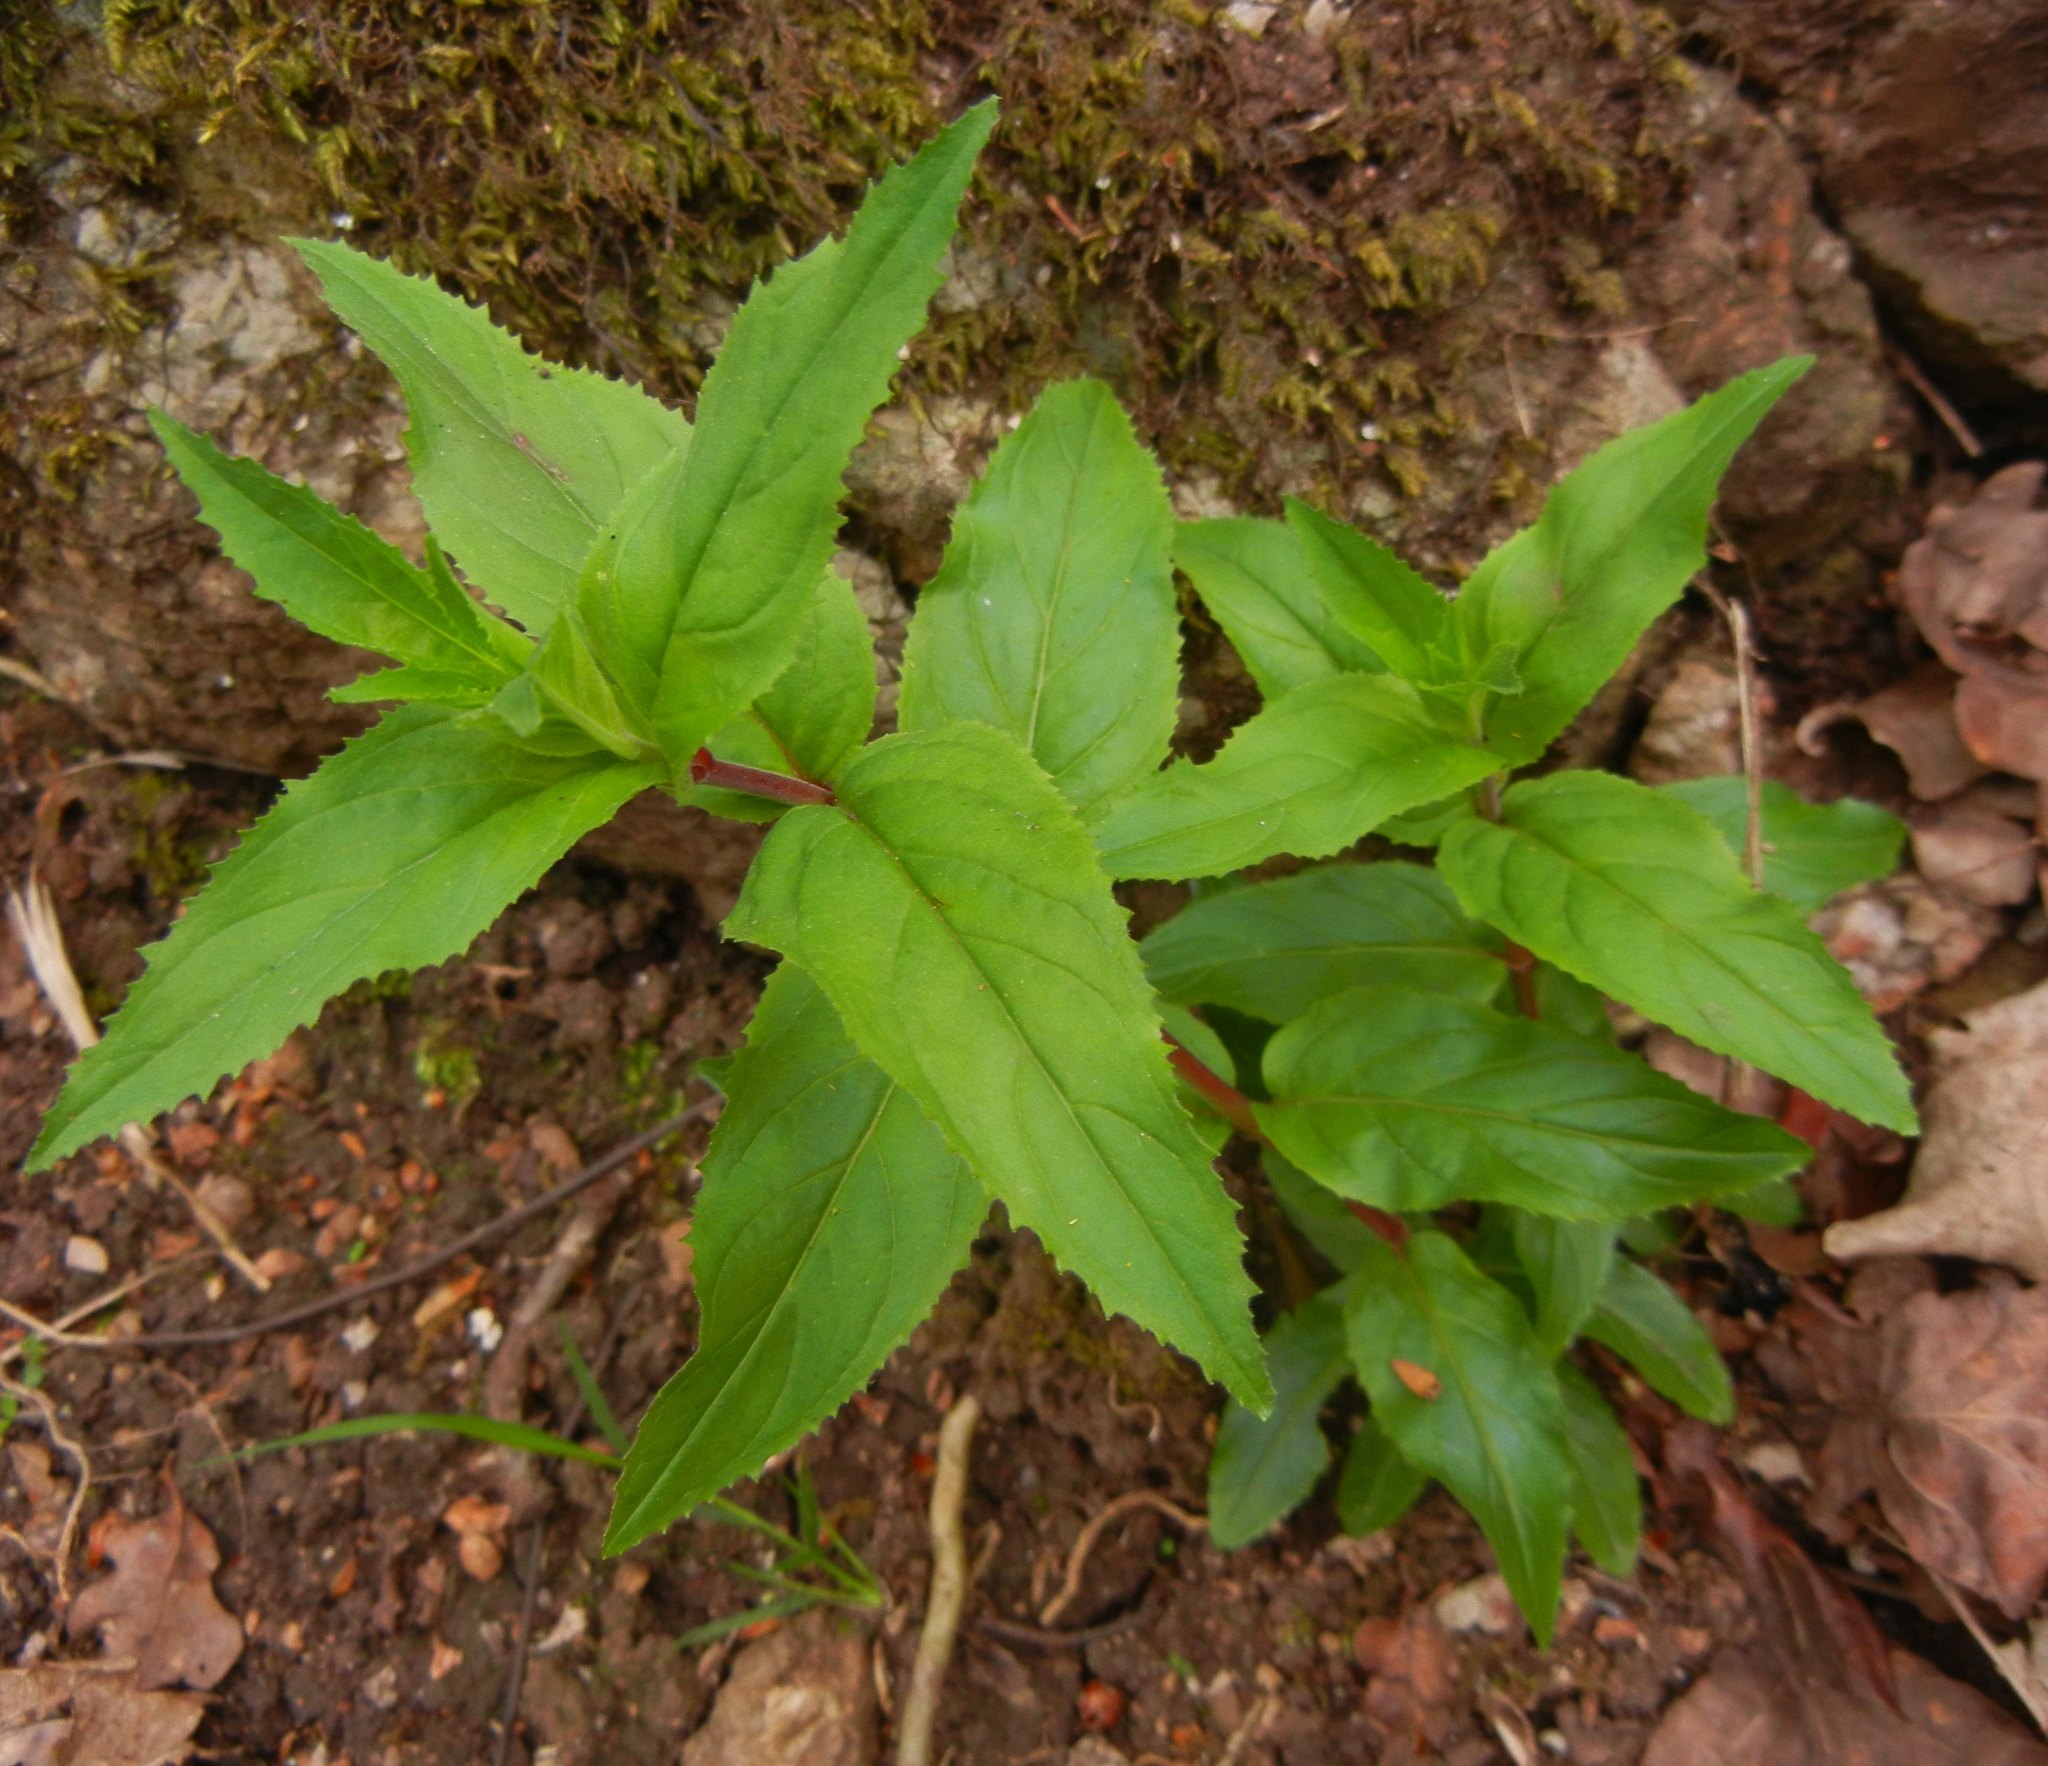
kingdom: Plantae
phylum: Tracheophyta
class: Magnoliopsida
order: Myrtales
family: Onagraceae
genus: Epilobium
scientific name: Epilobium montanum
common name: Broad-leaved willowherb
